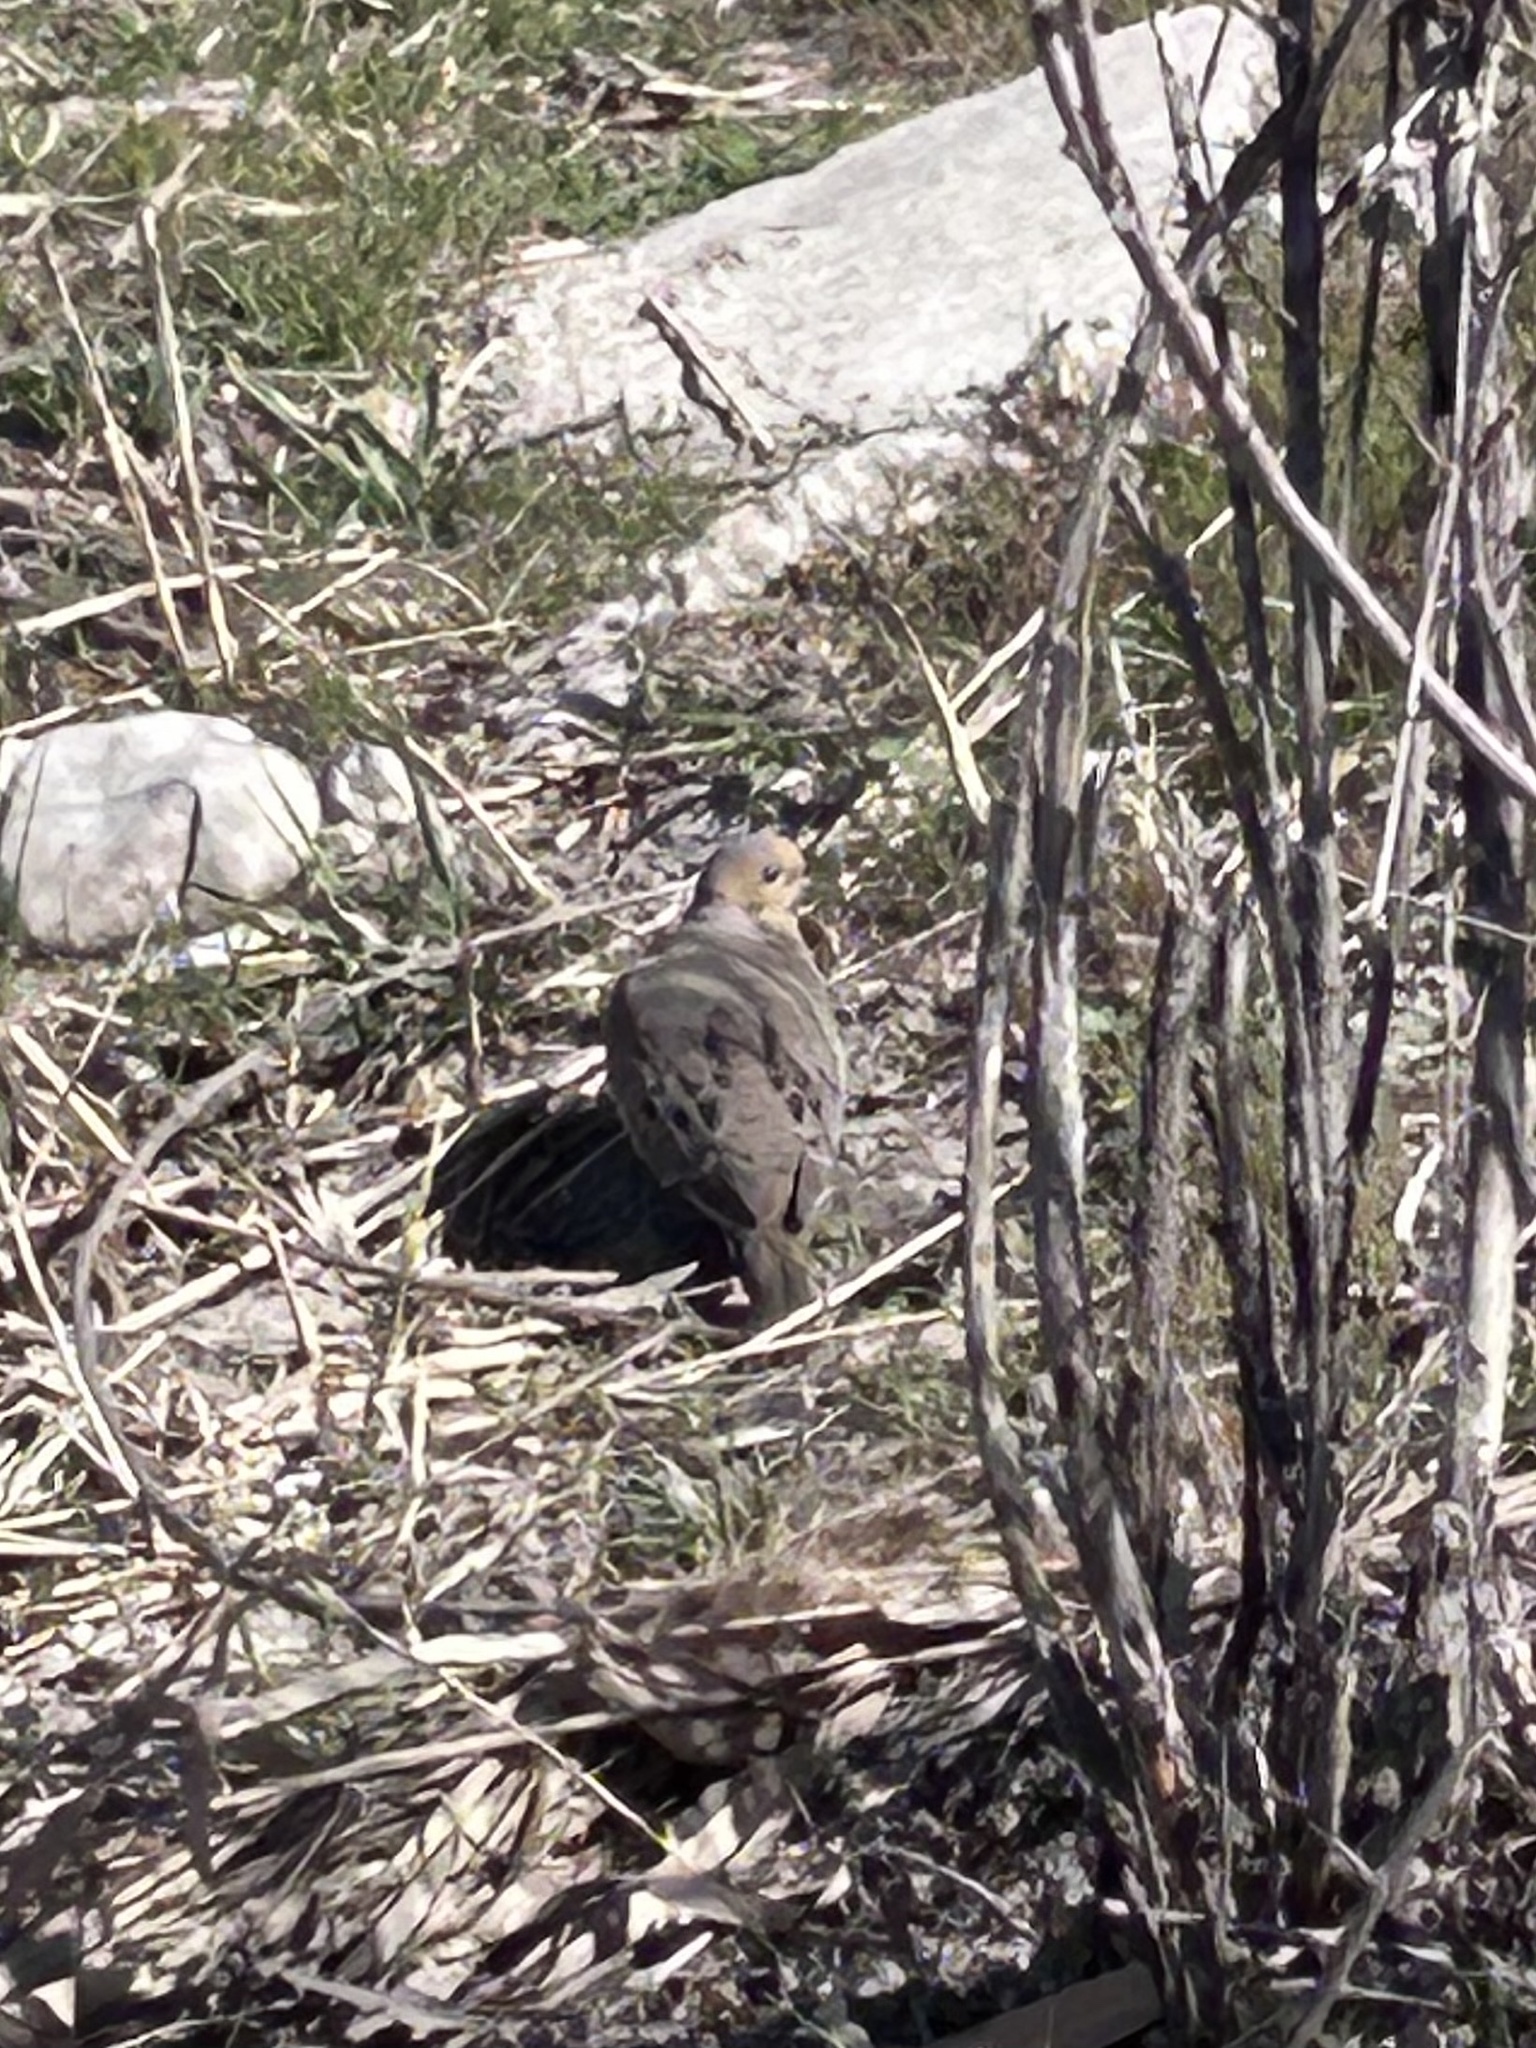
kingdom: Animalia
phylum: Chordata
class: Aves
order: Columbiformes
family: Columbidae
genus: Zenaida
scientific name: Zenaida macroura
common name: Mourning dove
